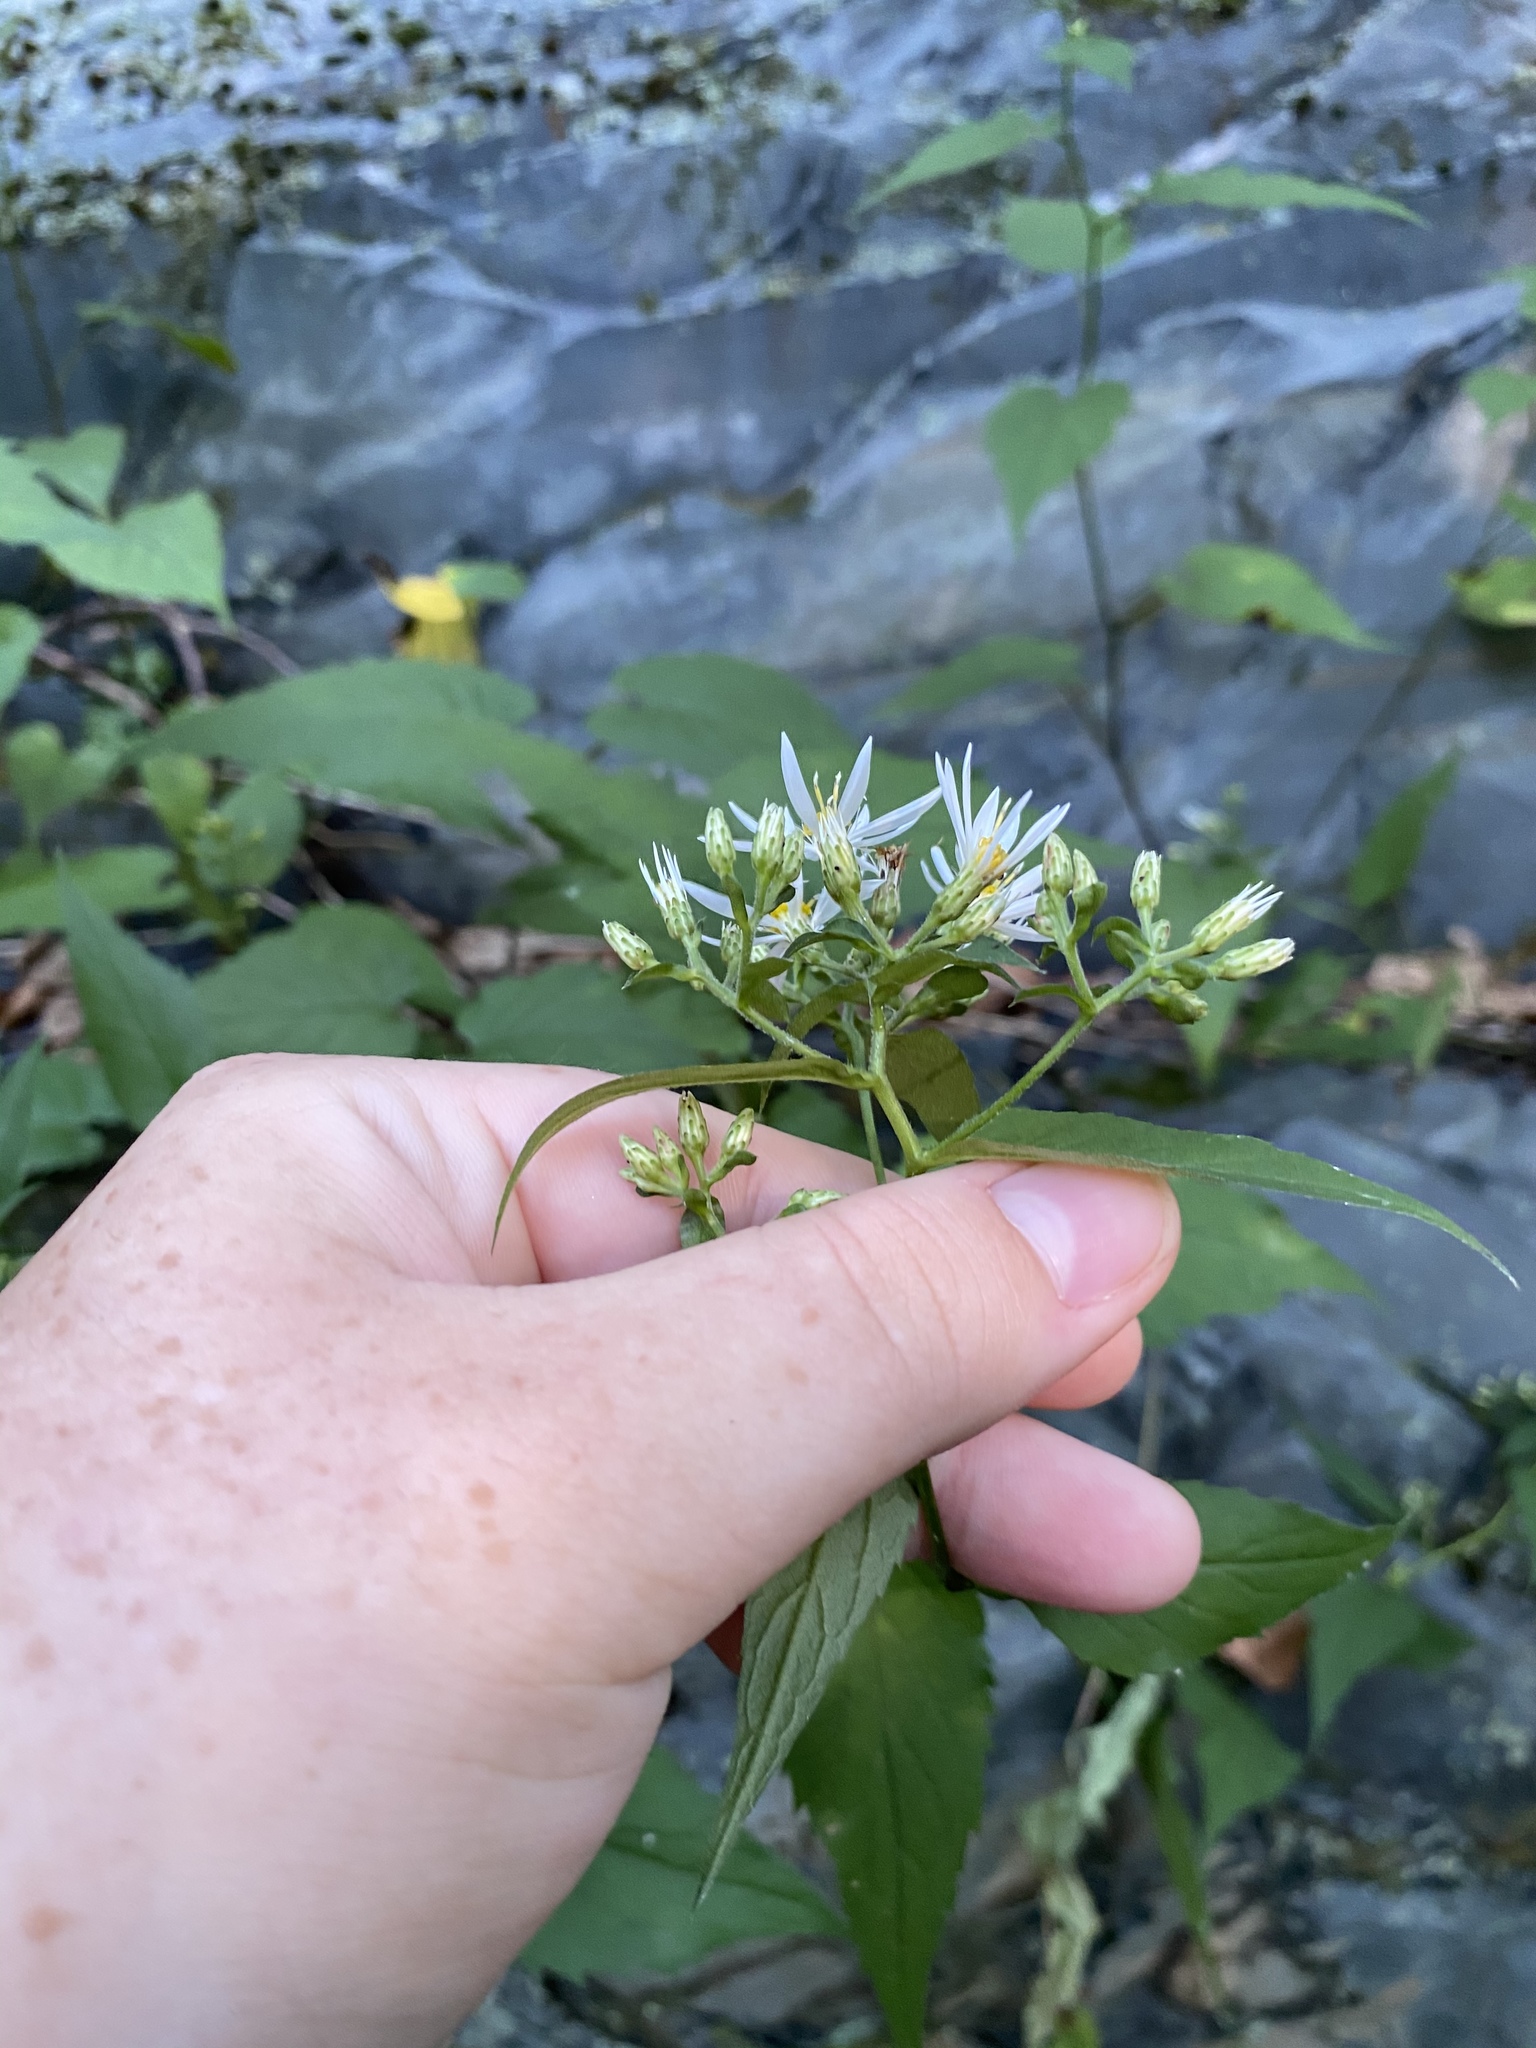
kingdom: Plantae
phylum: Tracheophyta
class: Magnoliopsida
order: Asterales
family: Asteraceae
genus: Eurybia
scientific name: Eurybia divaricata
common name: White wood aster
